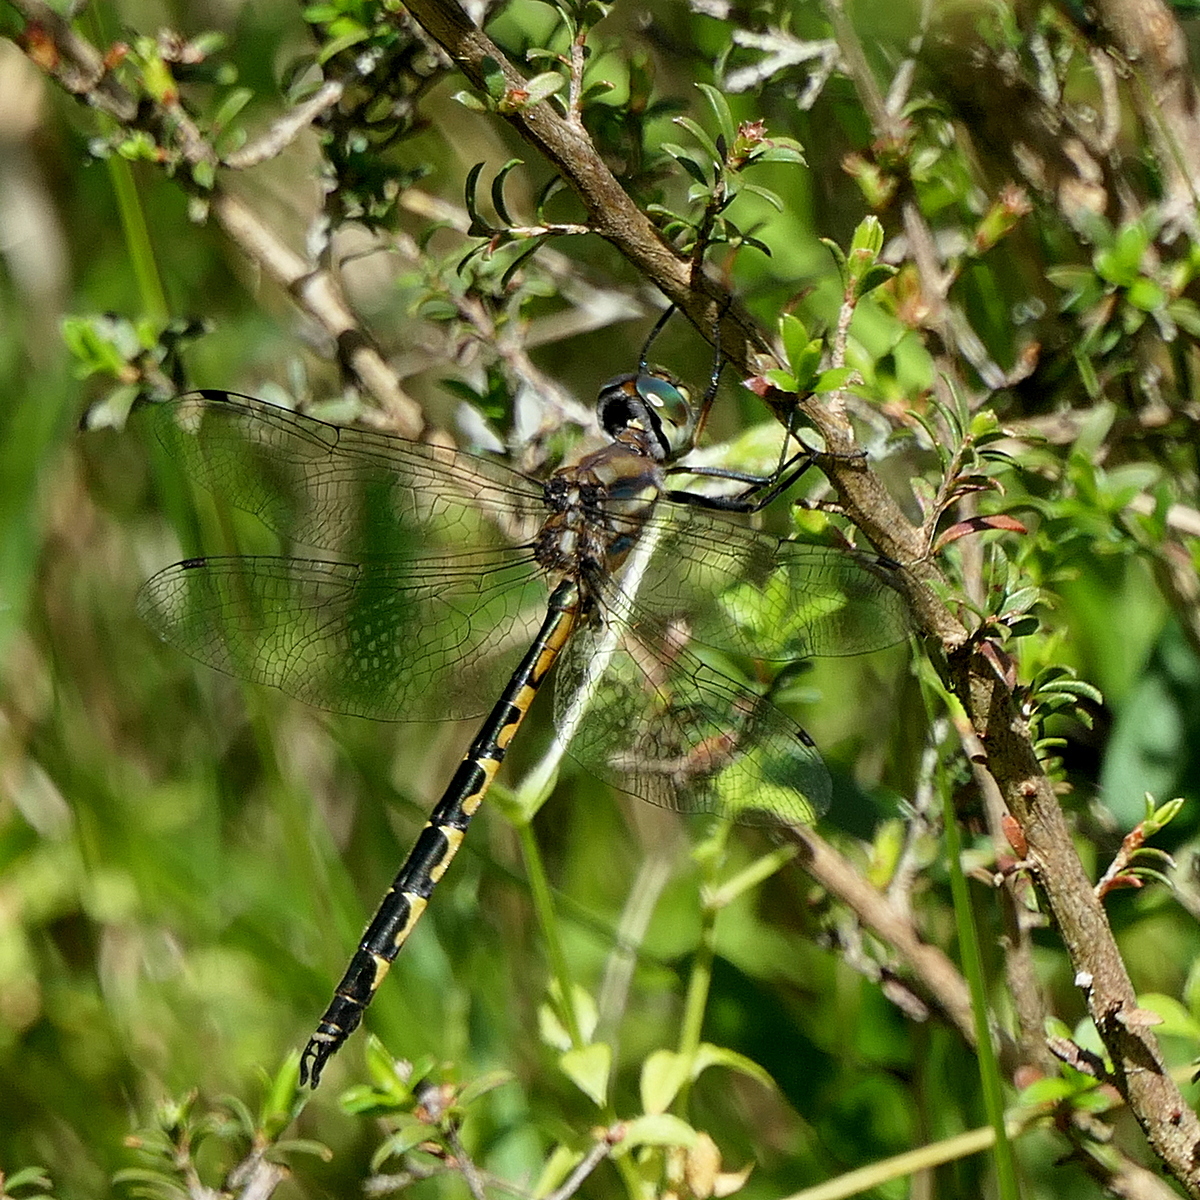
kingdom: Animalia
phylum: Arthropoda
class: Insecta
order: Odonata
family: Corduliidae
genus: Hemicordulia
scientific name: Hemicordulia australiae
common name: Sentry dragonfly
